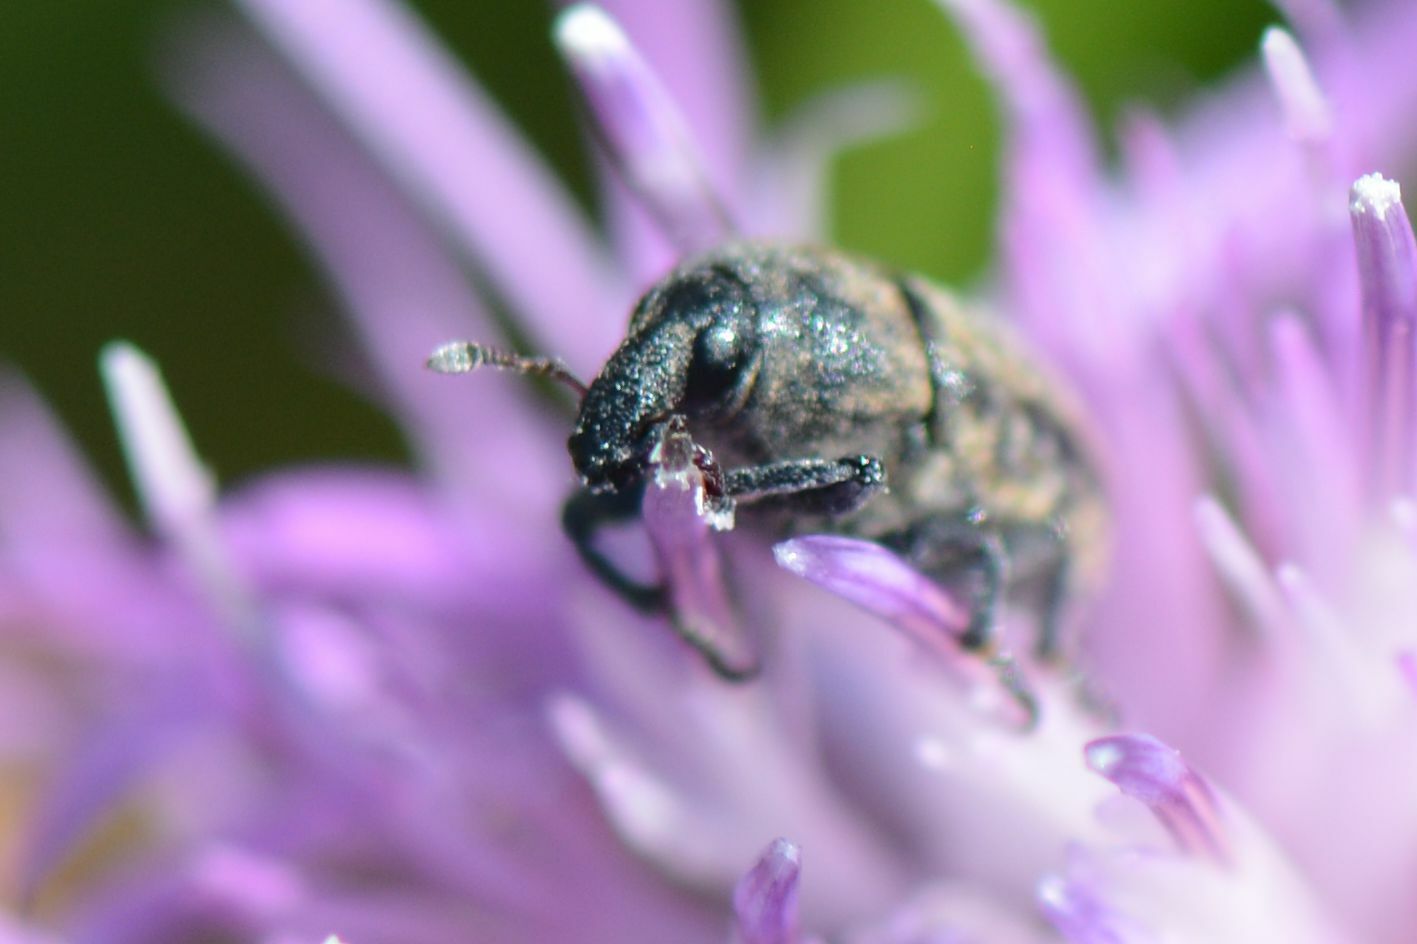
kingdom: Animalia
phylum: Arthropoda
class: Insecta
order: Coleoptera
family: Curculionidae
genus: Larinus
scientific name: Larinus obtusus
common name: Weevil
